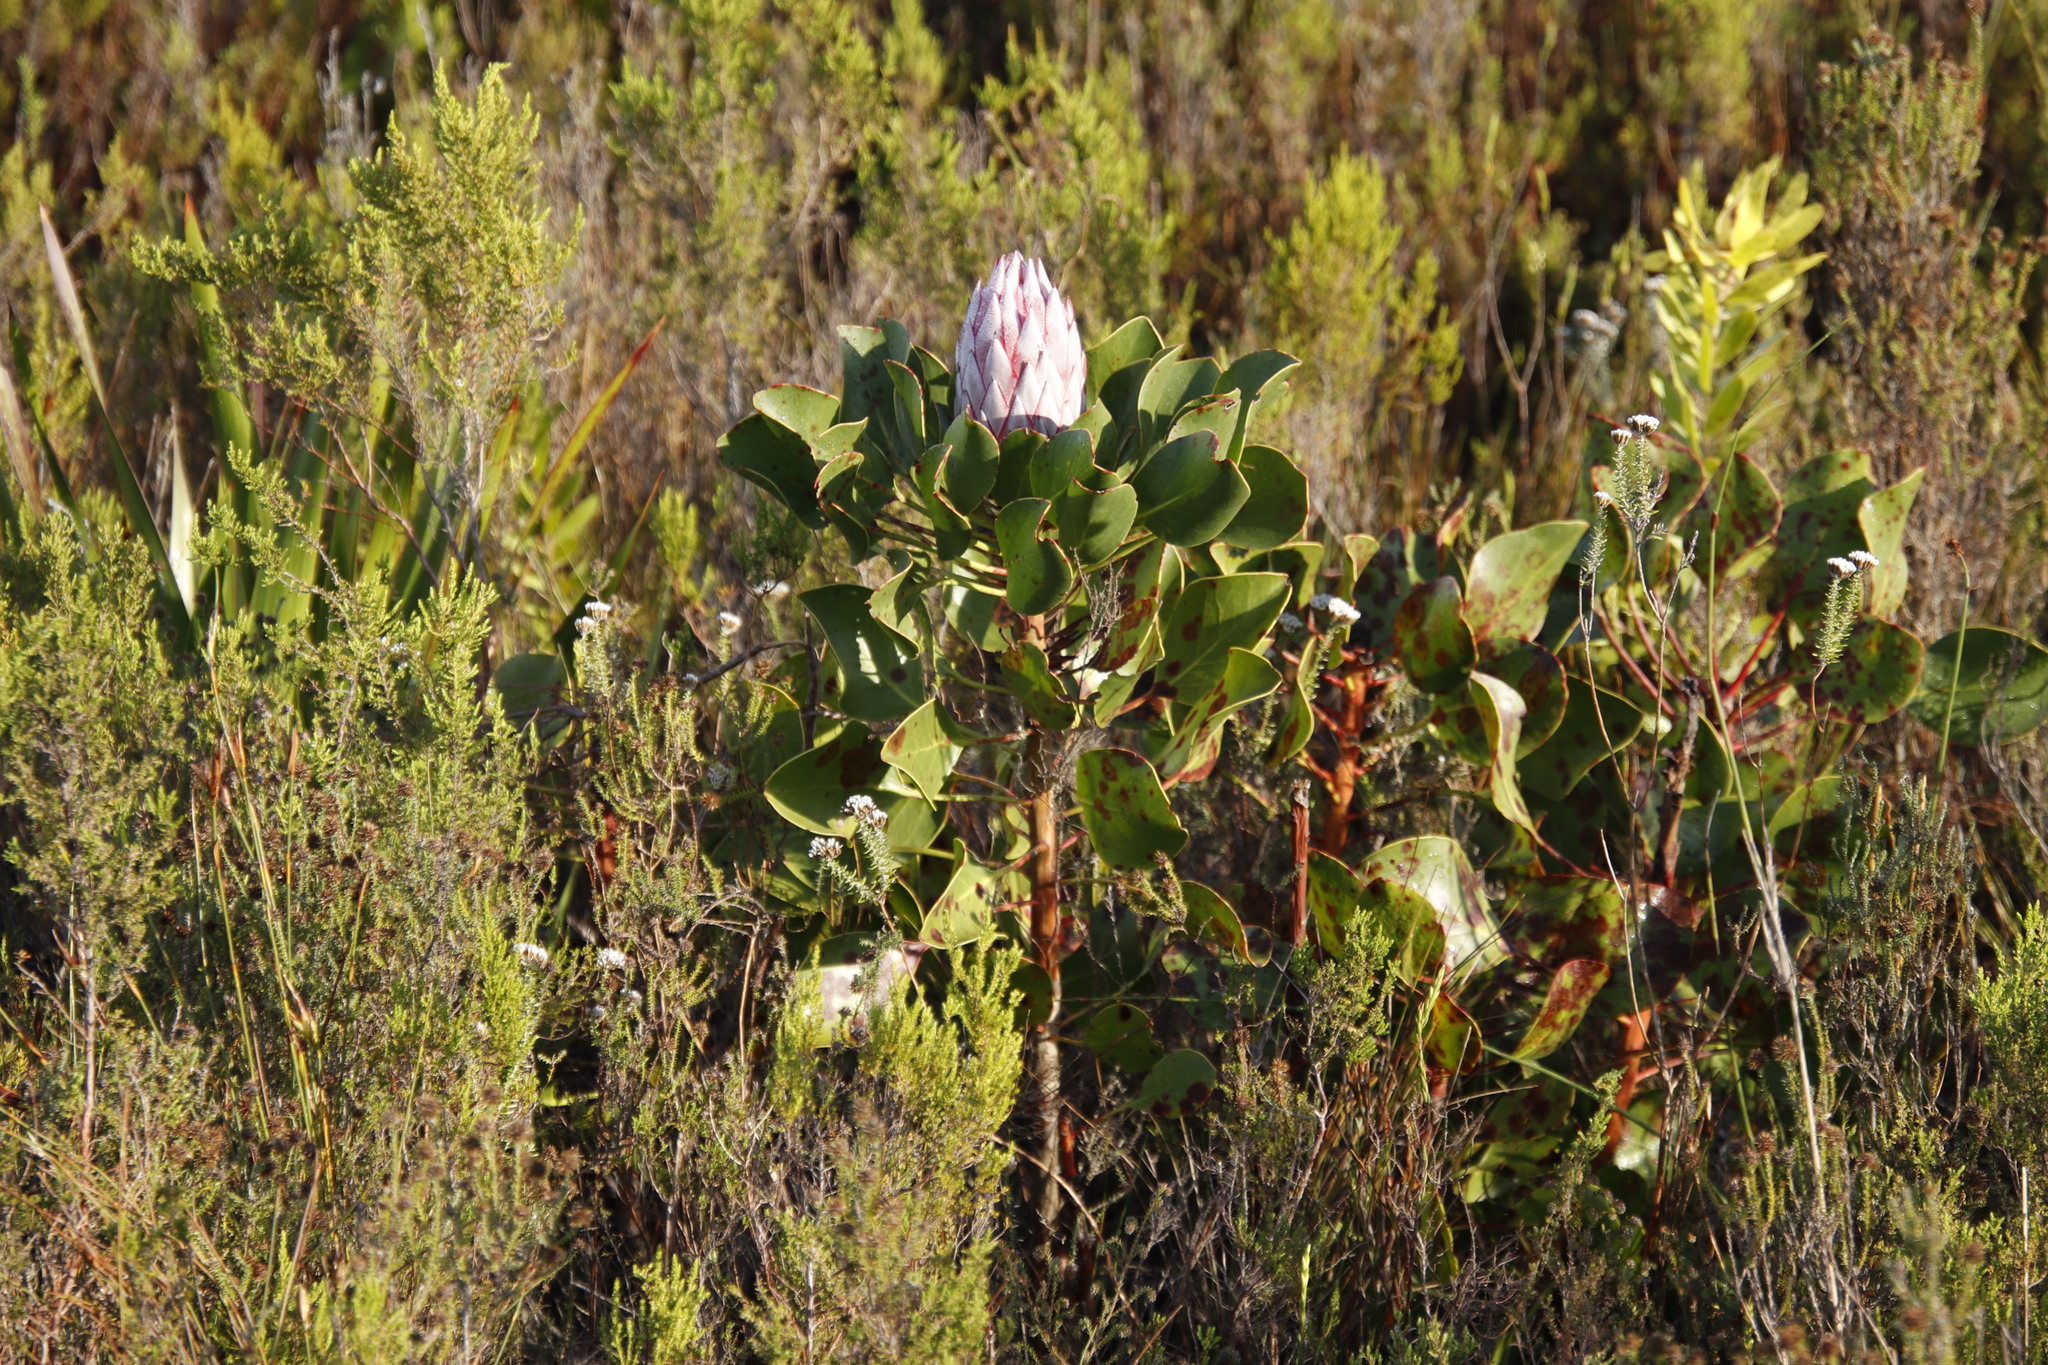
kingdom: Plantae
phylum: Tracheophyta
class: Magnoliopsida
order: Proteales
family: Proteaceae
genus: Protea
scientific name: Protea cynaroides
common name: King protea
